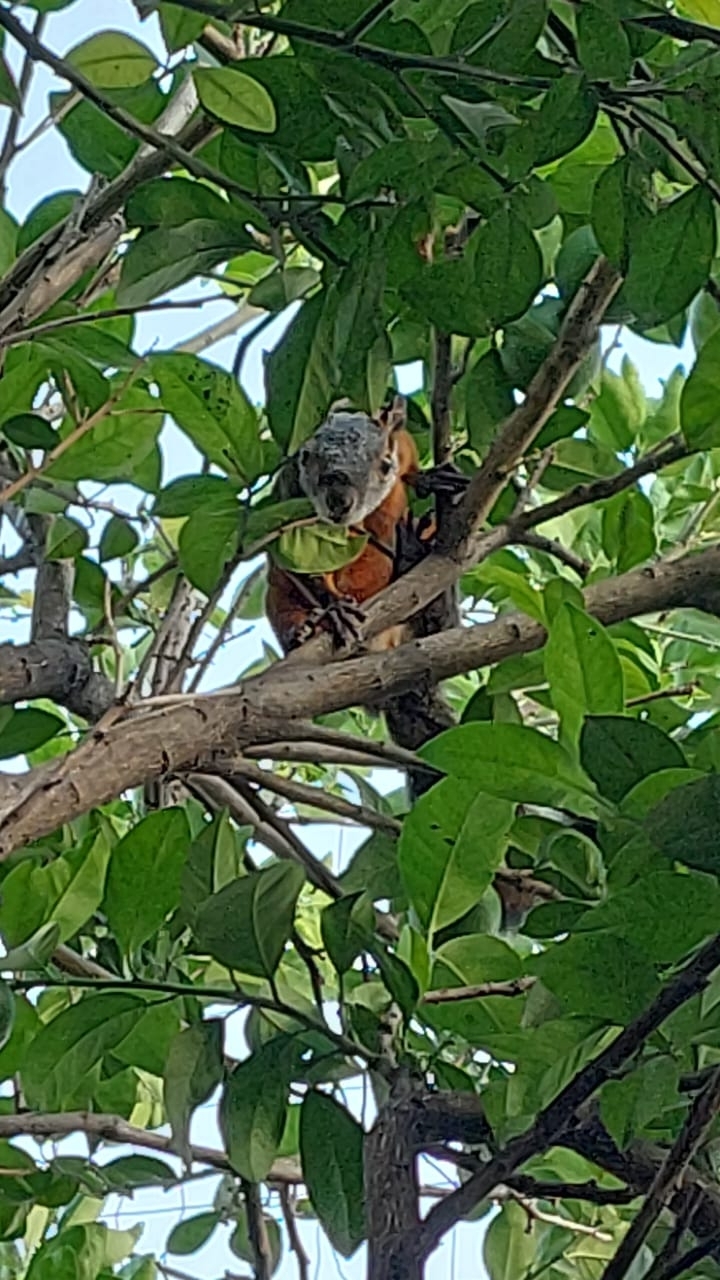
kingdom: Animalia
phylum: Chordata
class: Mammalia
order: Rodentia
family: Sciuridae
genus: Sciurus
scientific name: Sciurus aureogaster
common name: Red-bellied squirrel
